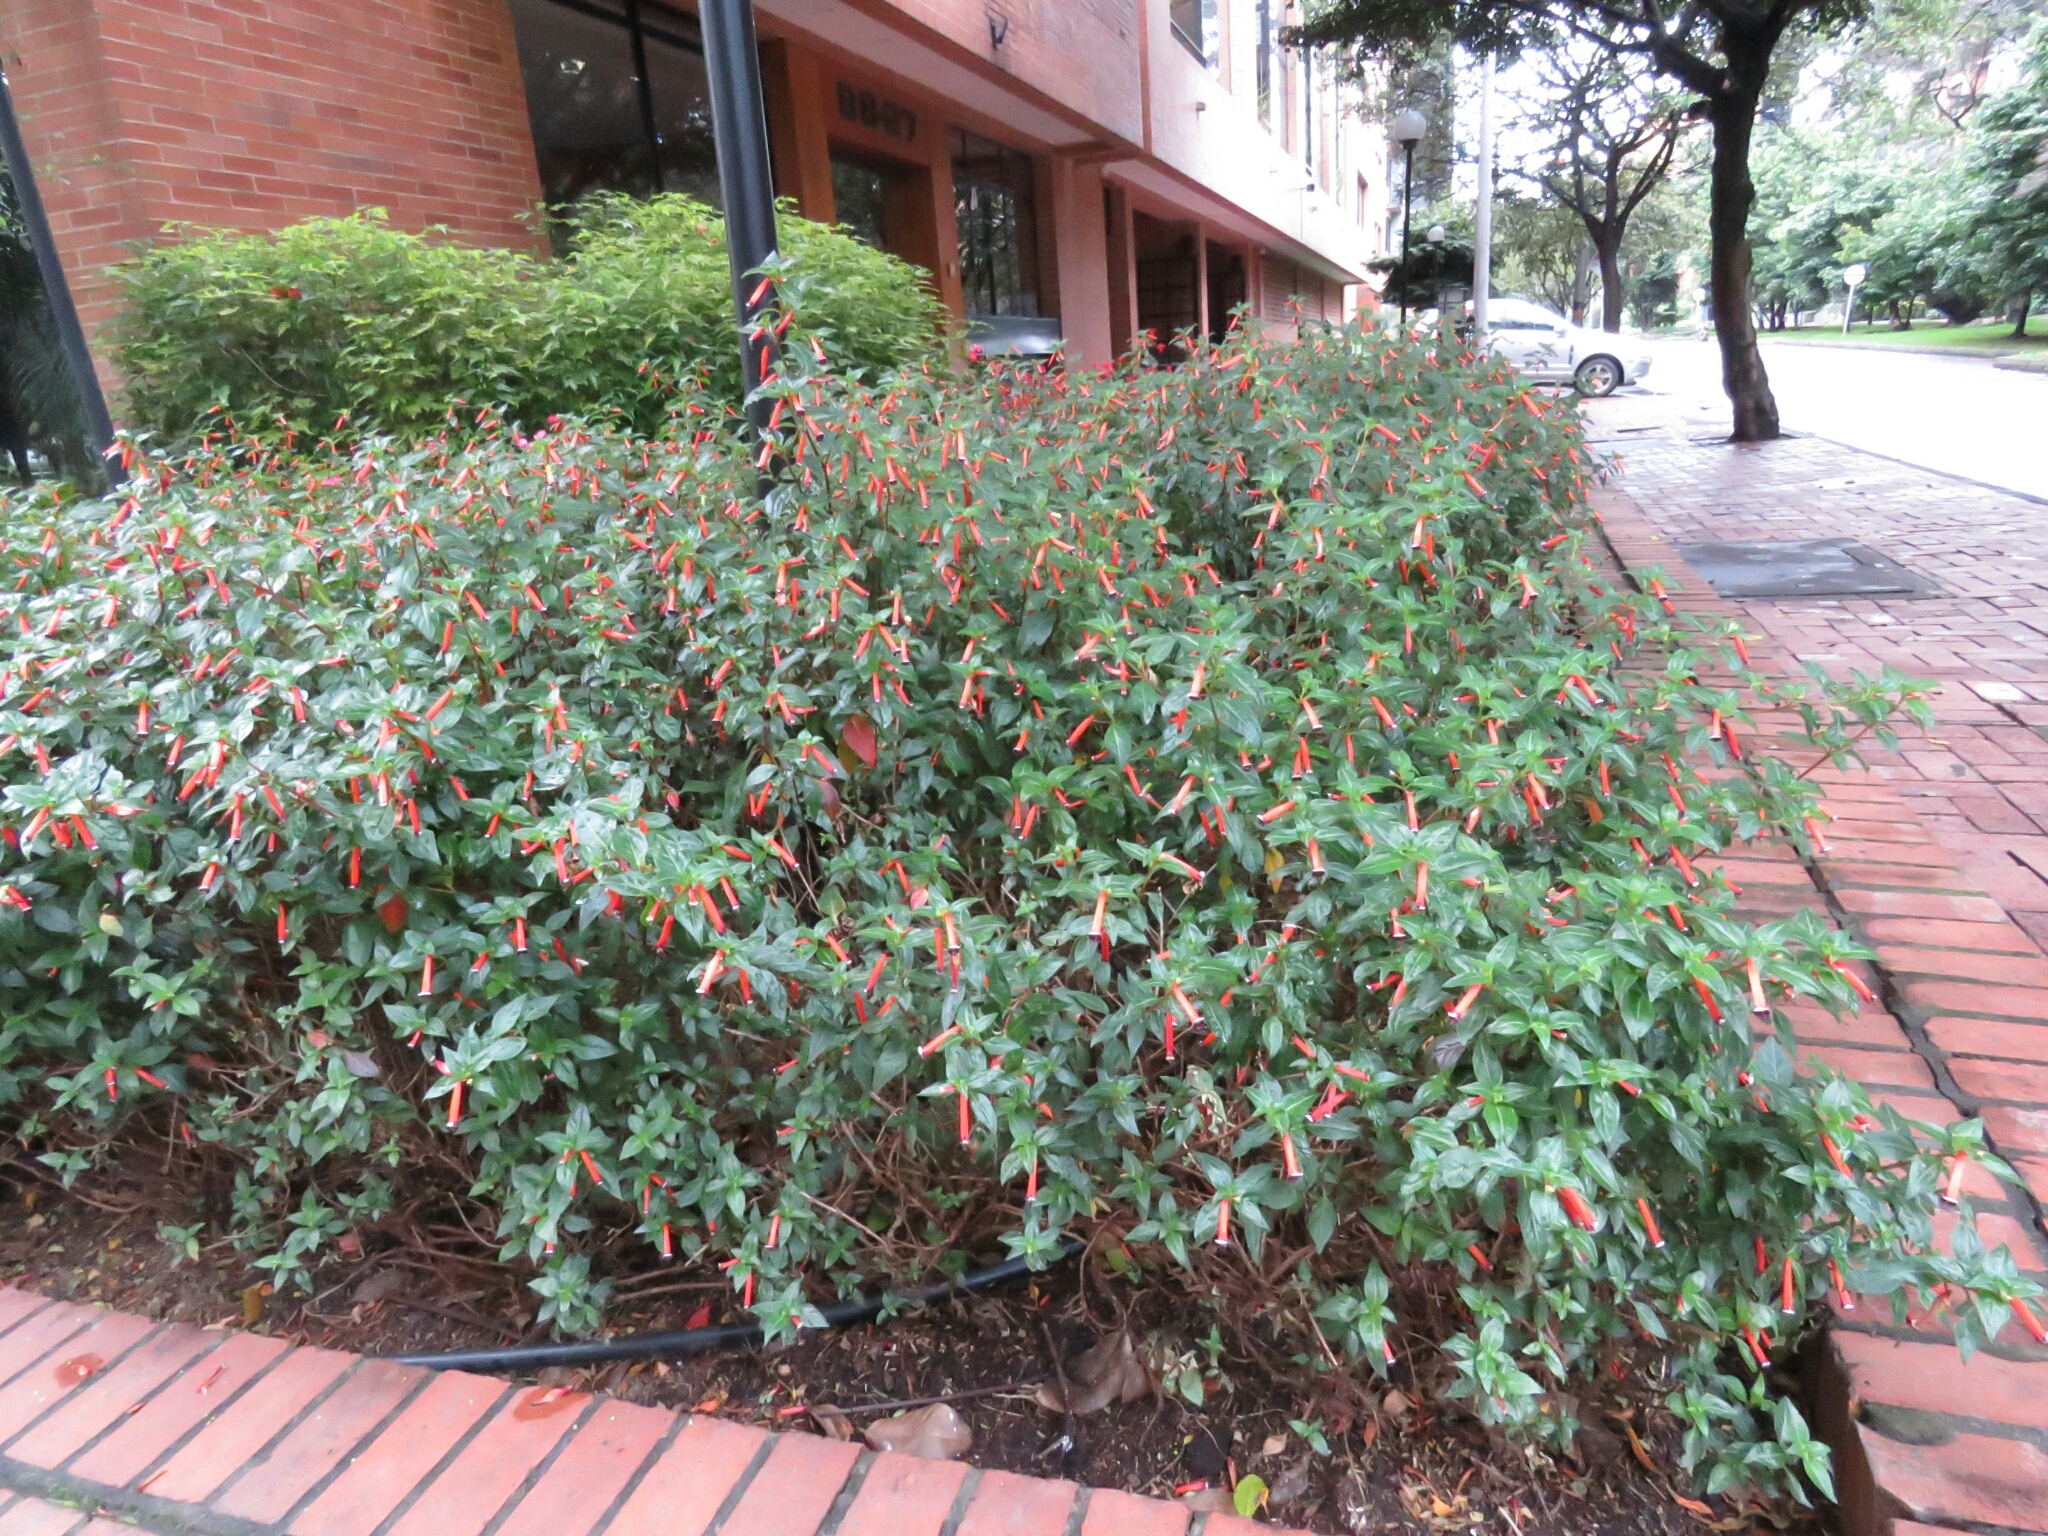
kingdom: Plantae
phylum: Tracheophyta
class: Magnoliopsida
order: Myrtales
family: Lythraceae
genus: Cuphea
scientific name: Cuphea ignea
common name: Cigar flower
